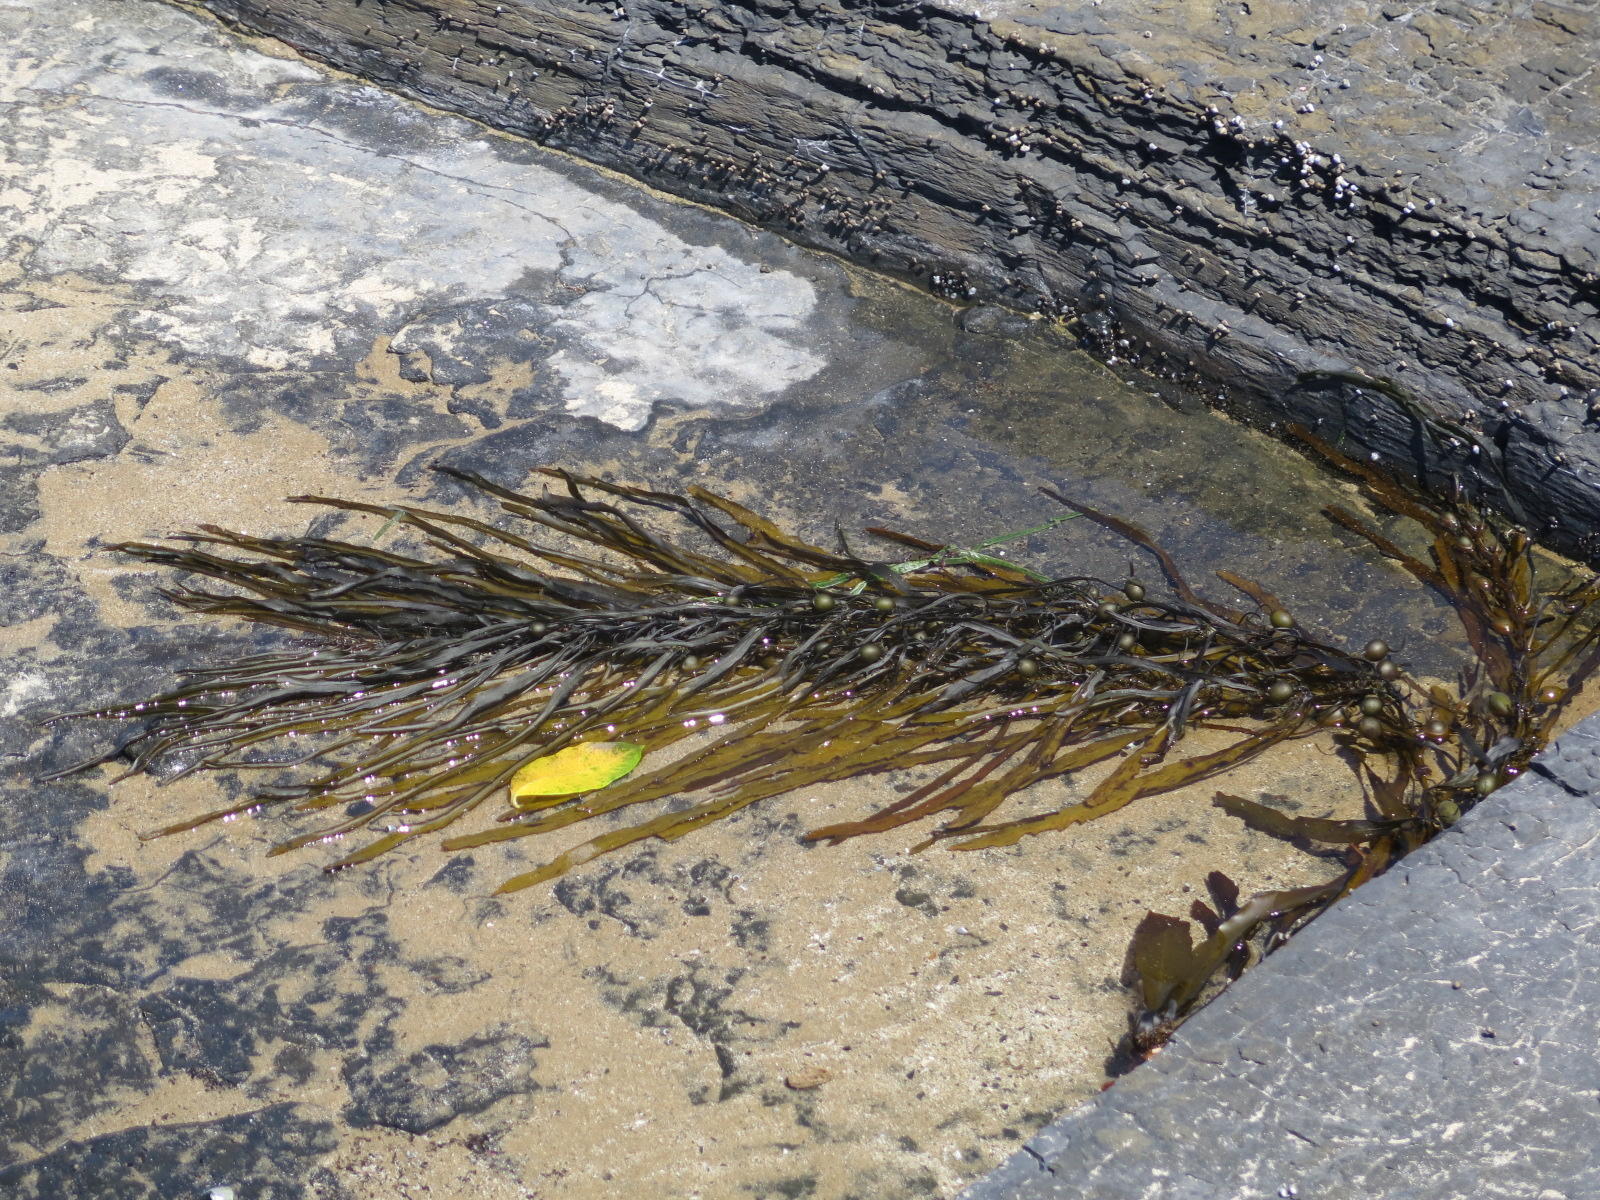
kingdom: Chromista
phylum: Ochrophyta
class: Phaeophyceae
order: Fucales
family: Sargassaceae
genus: Anthophycus
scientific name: Anthophycus
